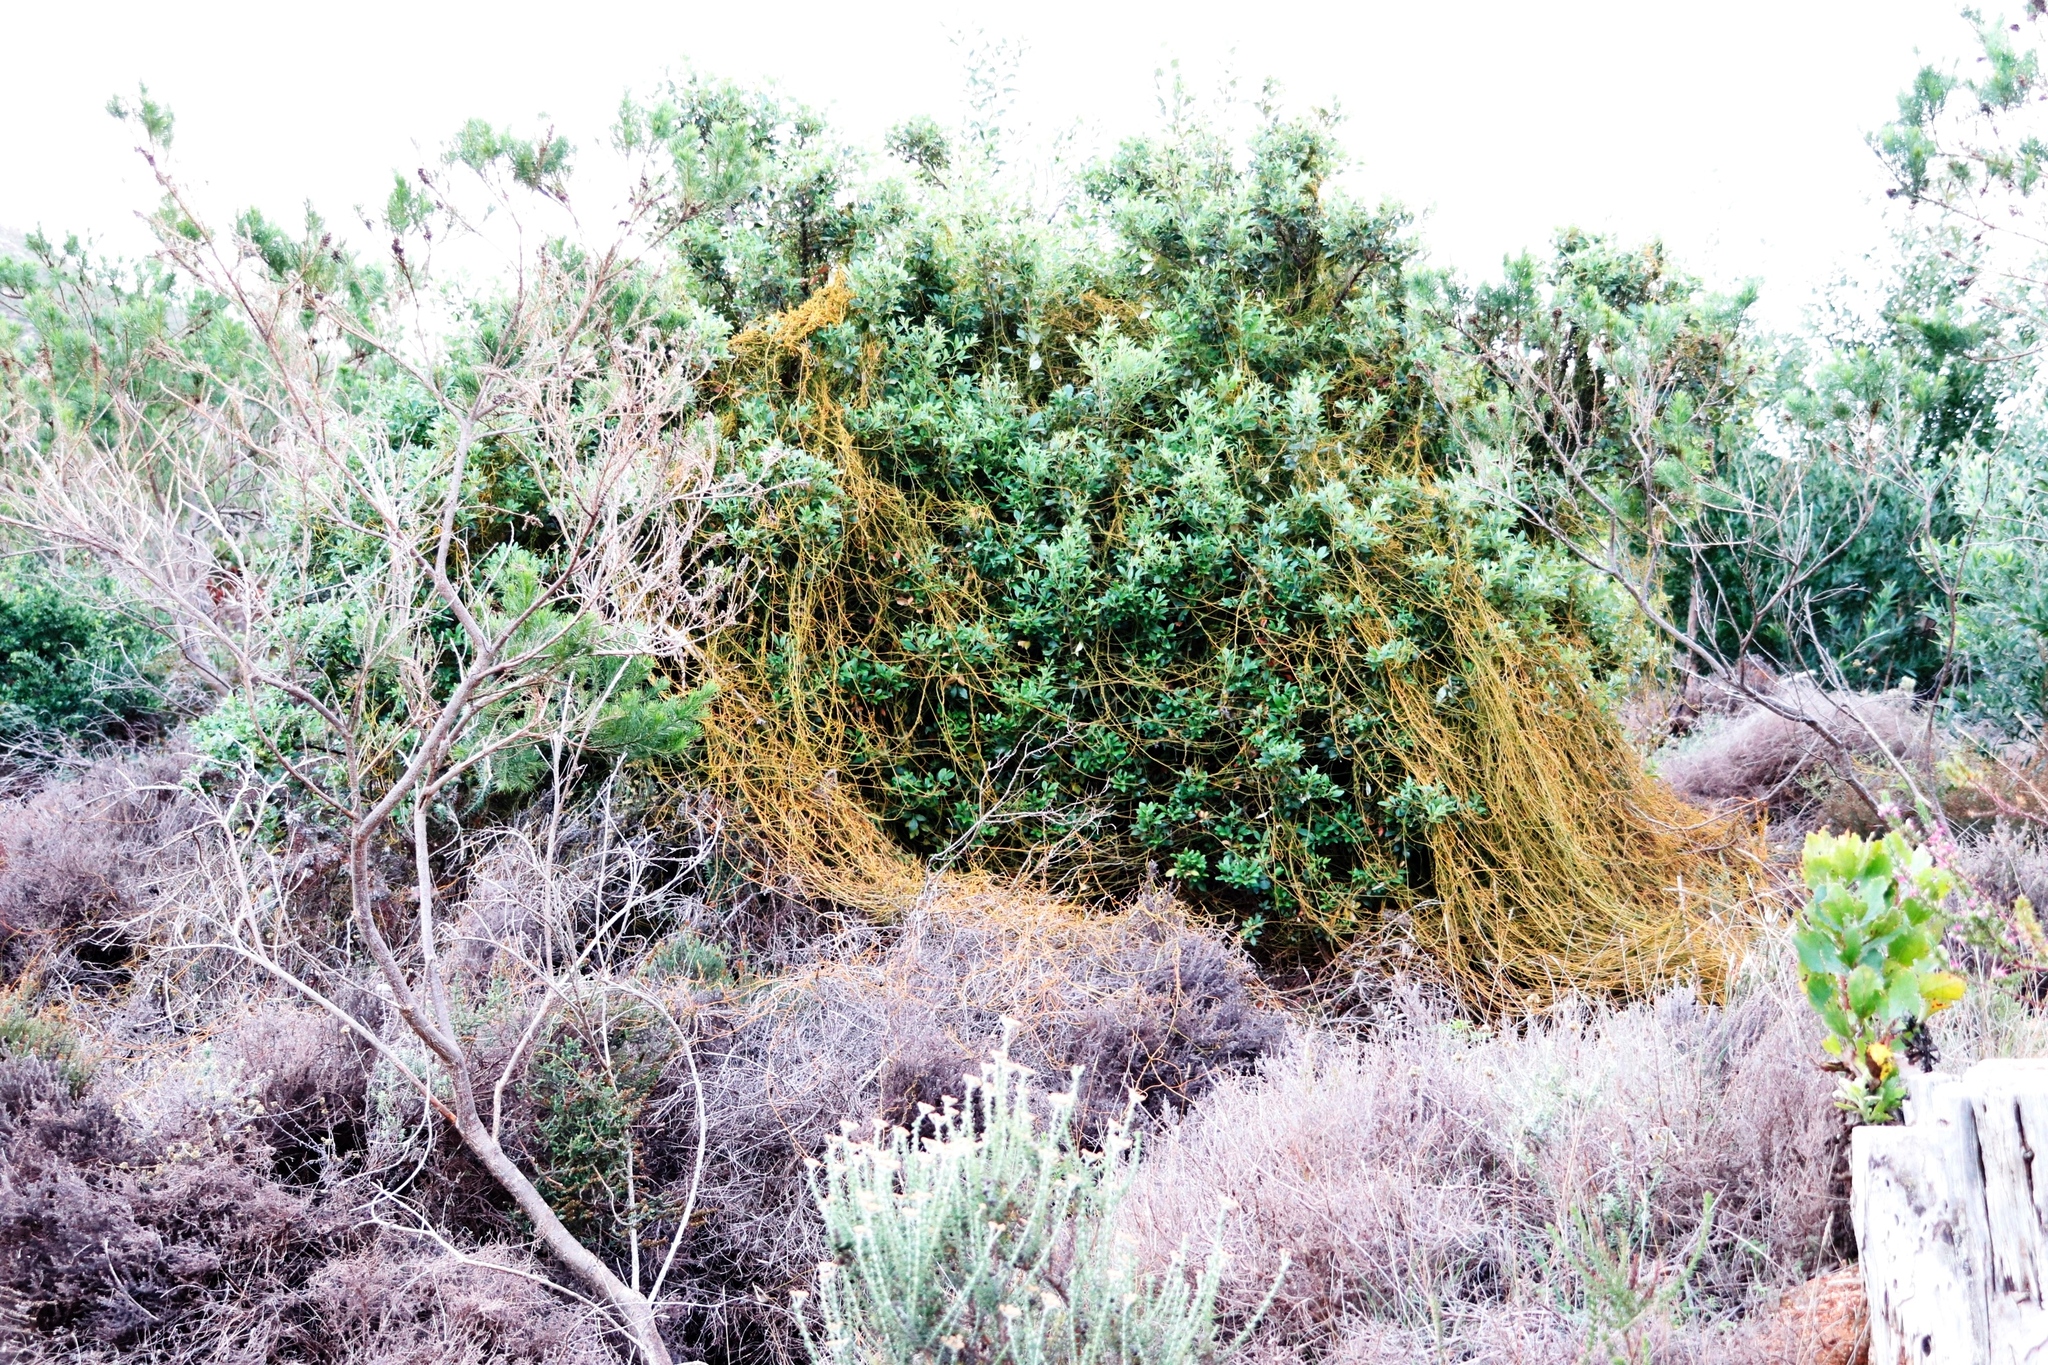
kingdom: Plantae
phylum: Tracheophyta
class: Magnoliopsida
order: Laurales
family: Lauraceae
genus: Cassytha
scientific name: Cassytha ciliolata
